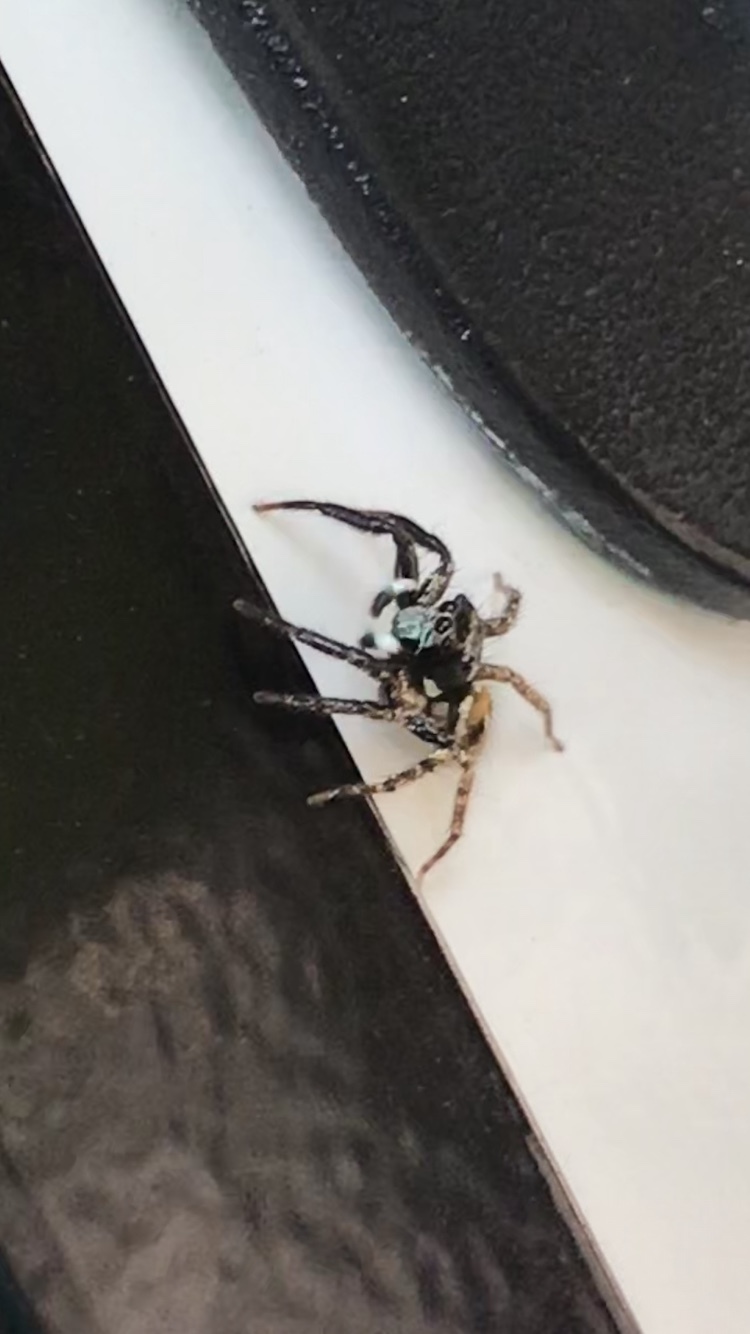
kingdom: Animalia
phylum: Arthropoda
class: Arachnida
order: Araneae
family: Salticidae
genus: Anasaitis
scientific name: Anasaitis canosa
